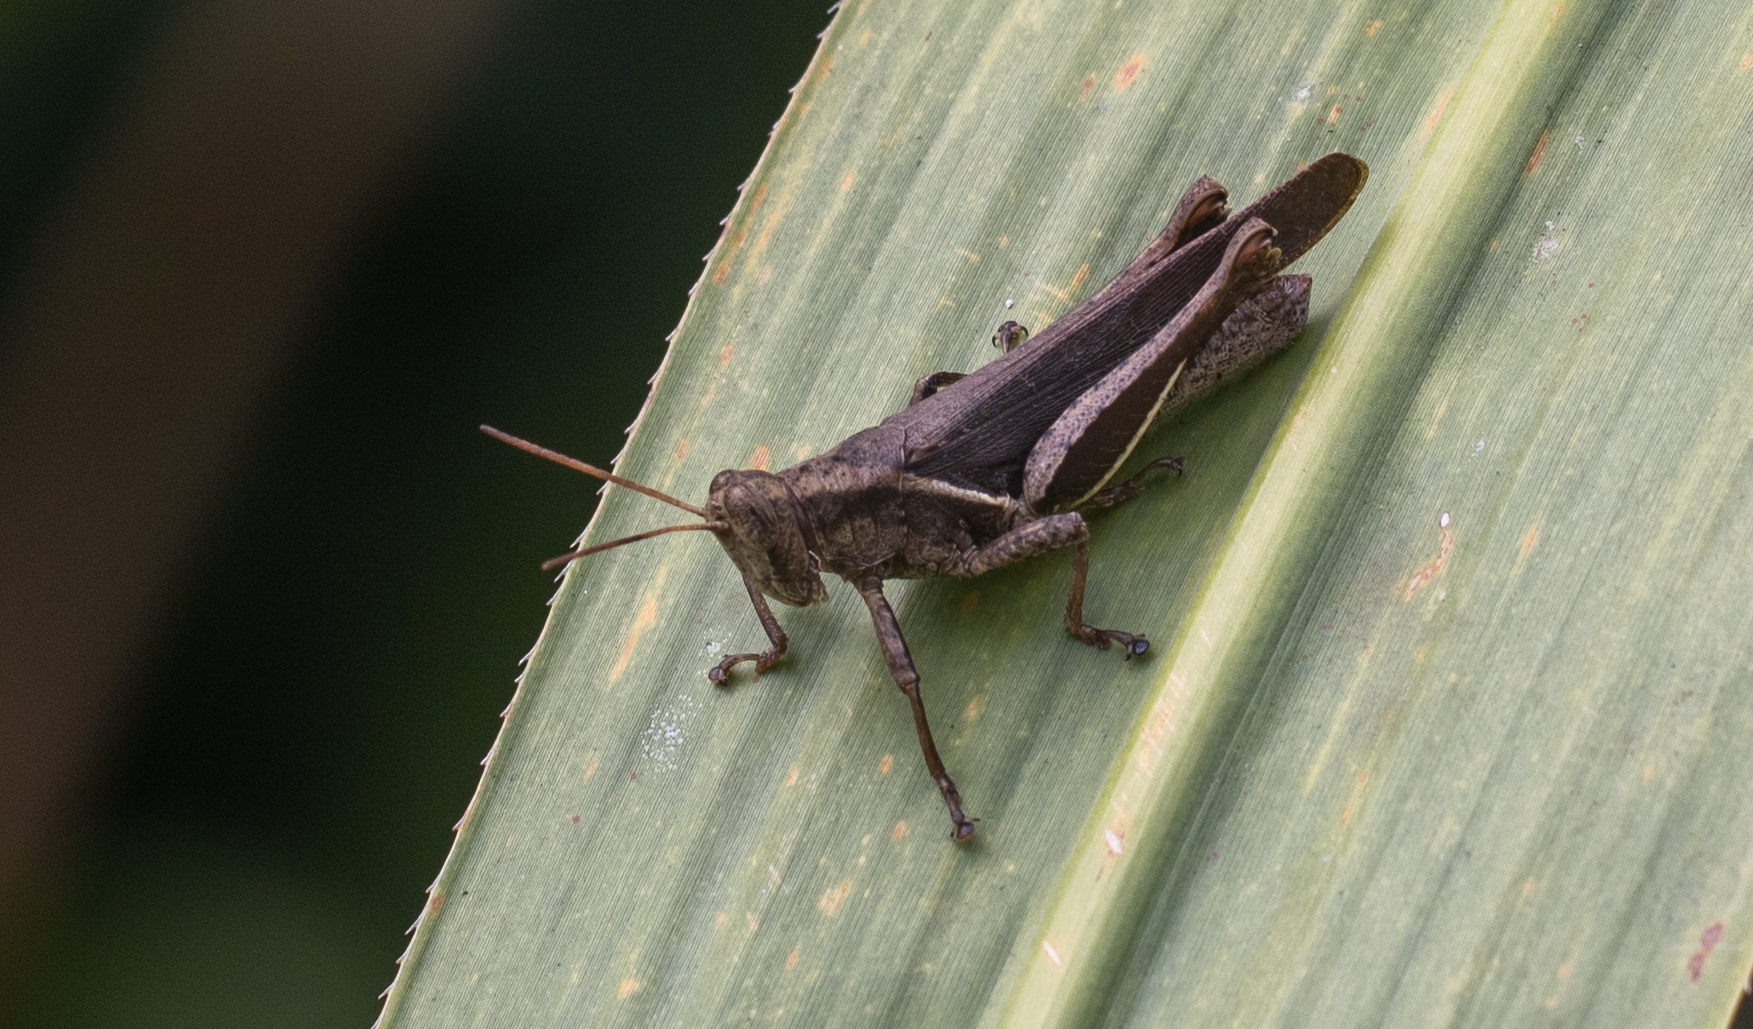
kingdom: Animalia
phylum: Arthropoda
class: Insecta
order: Orthoptera
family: Acrididae
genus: Abracris
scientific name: Abracris flavolineata
